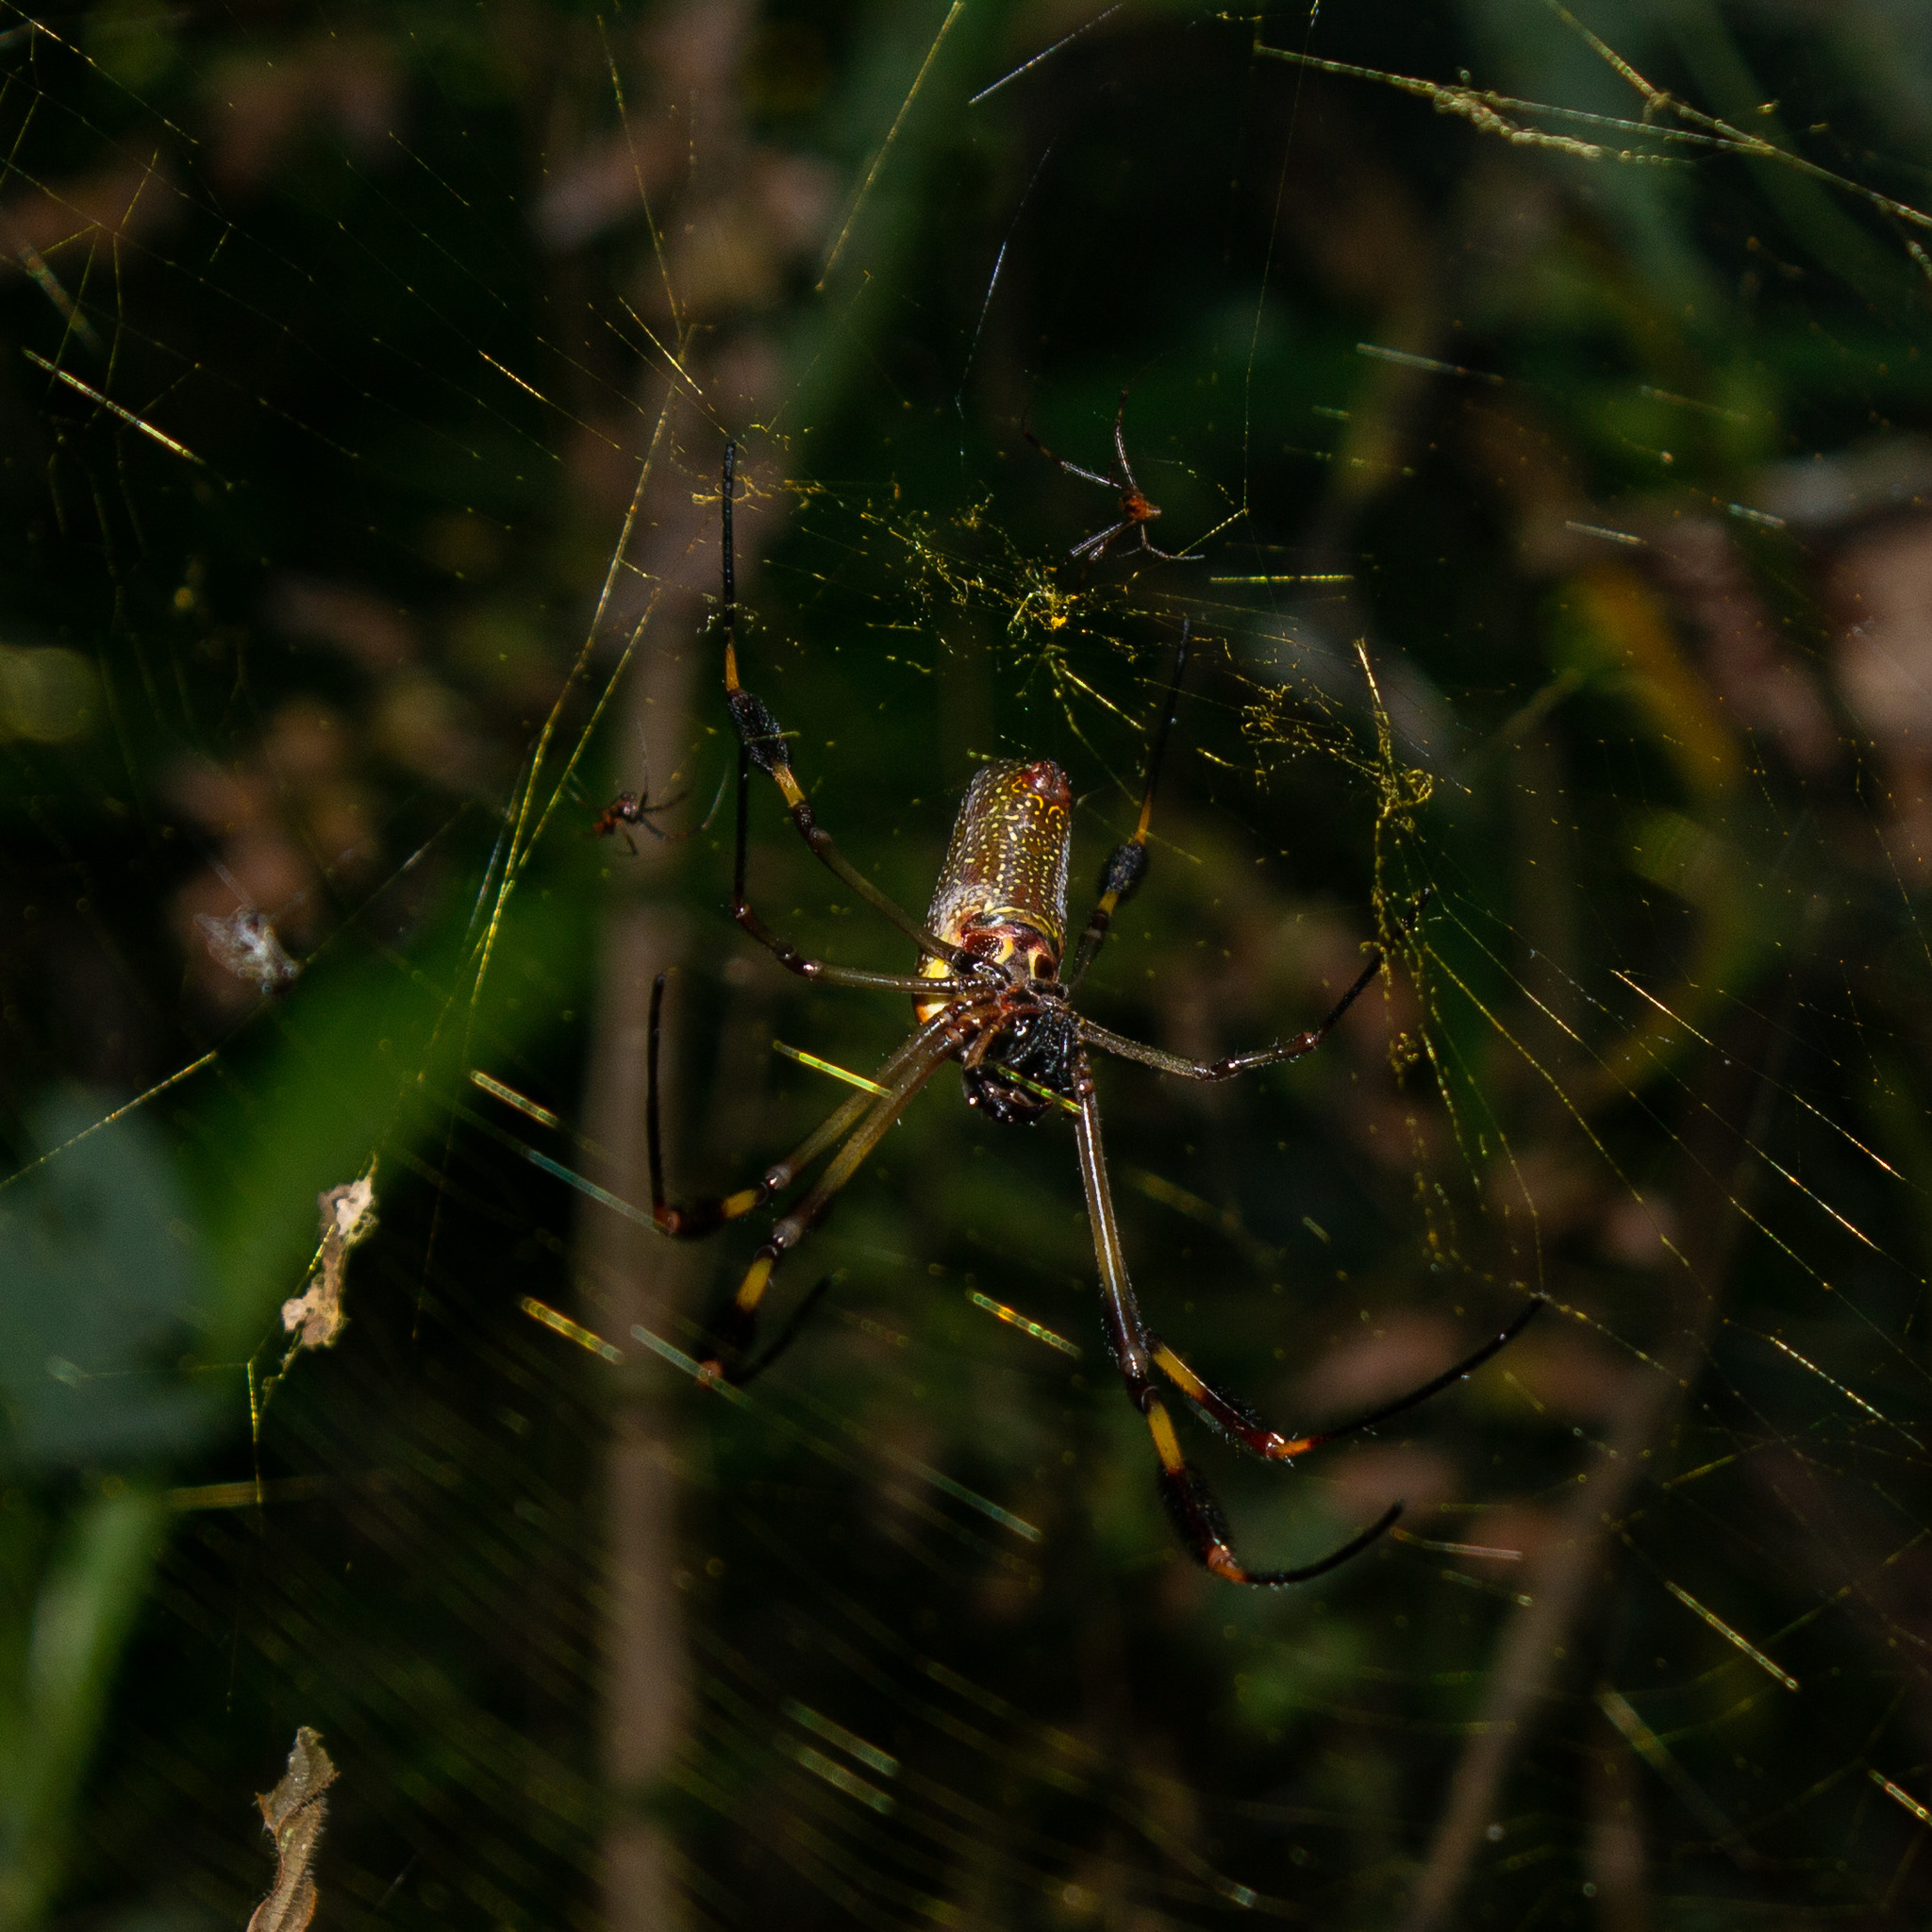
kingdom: Animalia
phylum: Arthropoda
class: Arachnida
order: Araneae
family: Araneidae
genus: Trichonephila
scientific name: Trichonephila clavipes
